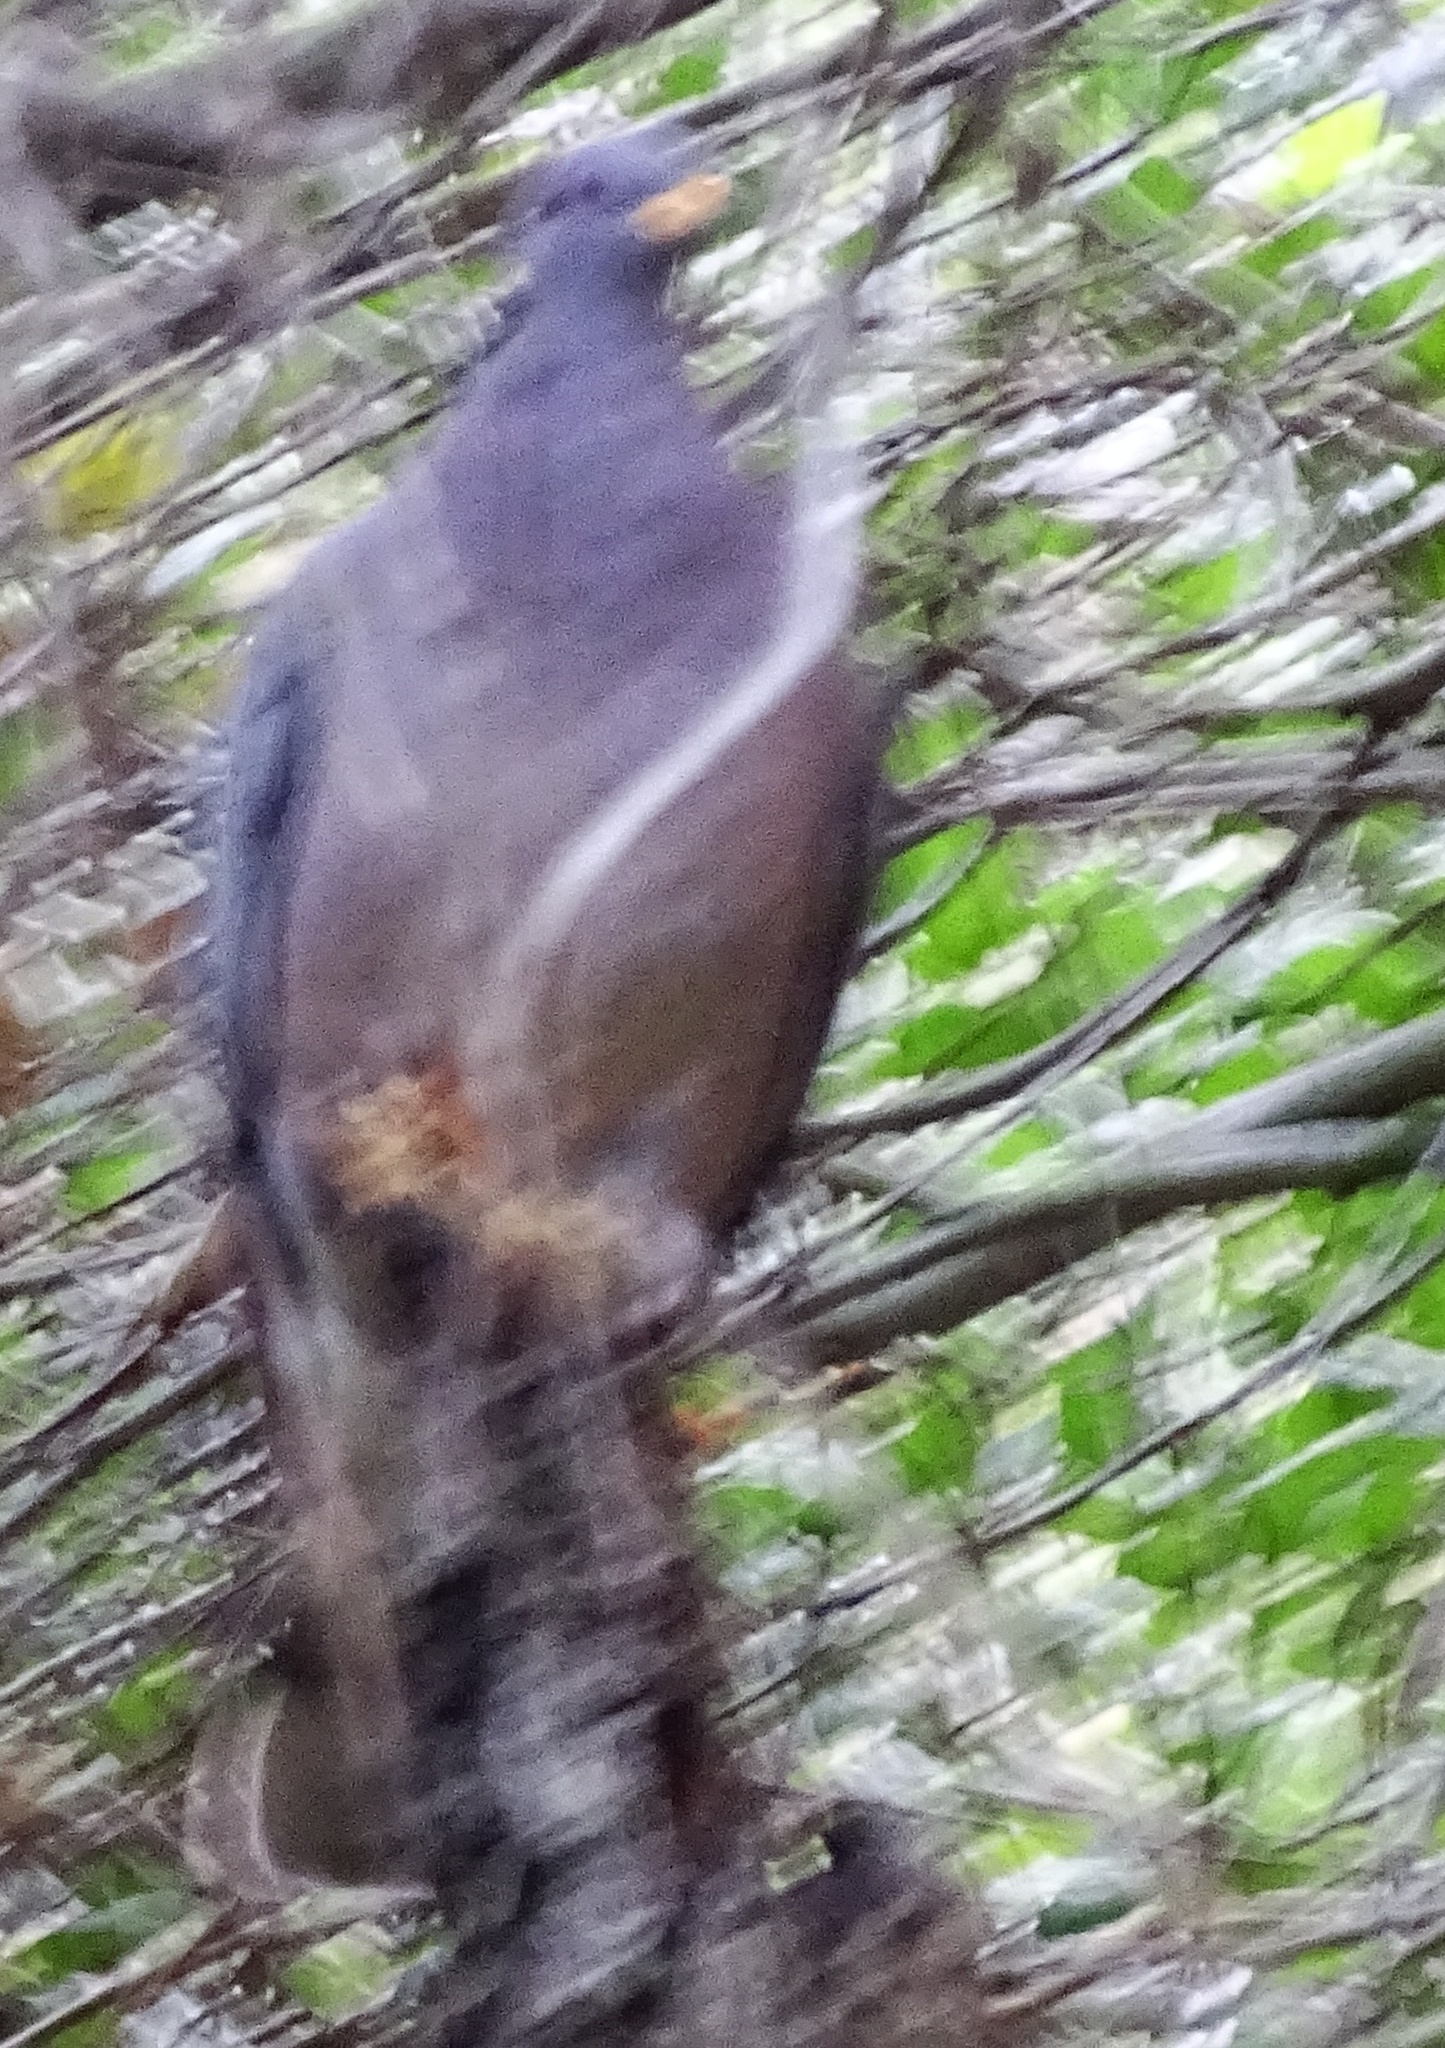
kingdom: Animalia
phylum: Chordata
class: Aves
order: Columbiformes
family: Columbidae
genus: Patagioenas
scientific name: Patagioenas fasciata
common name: Band-tailed pigeon
